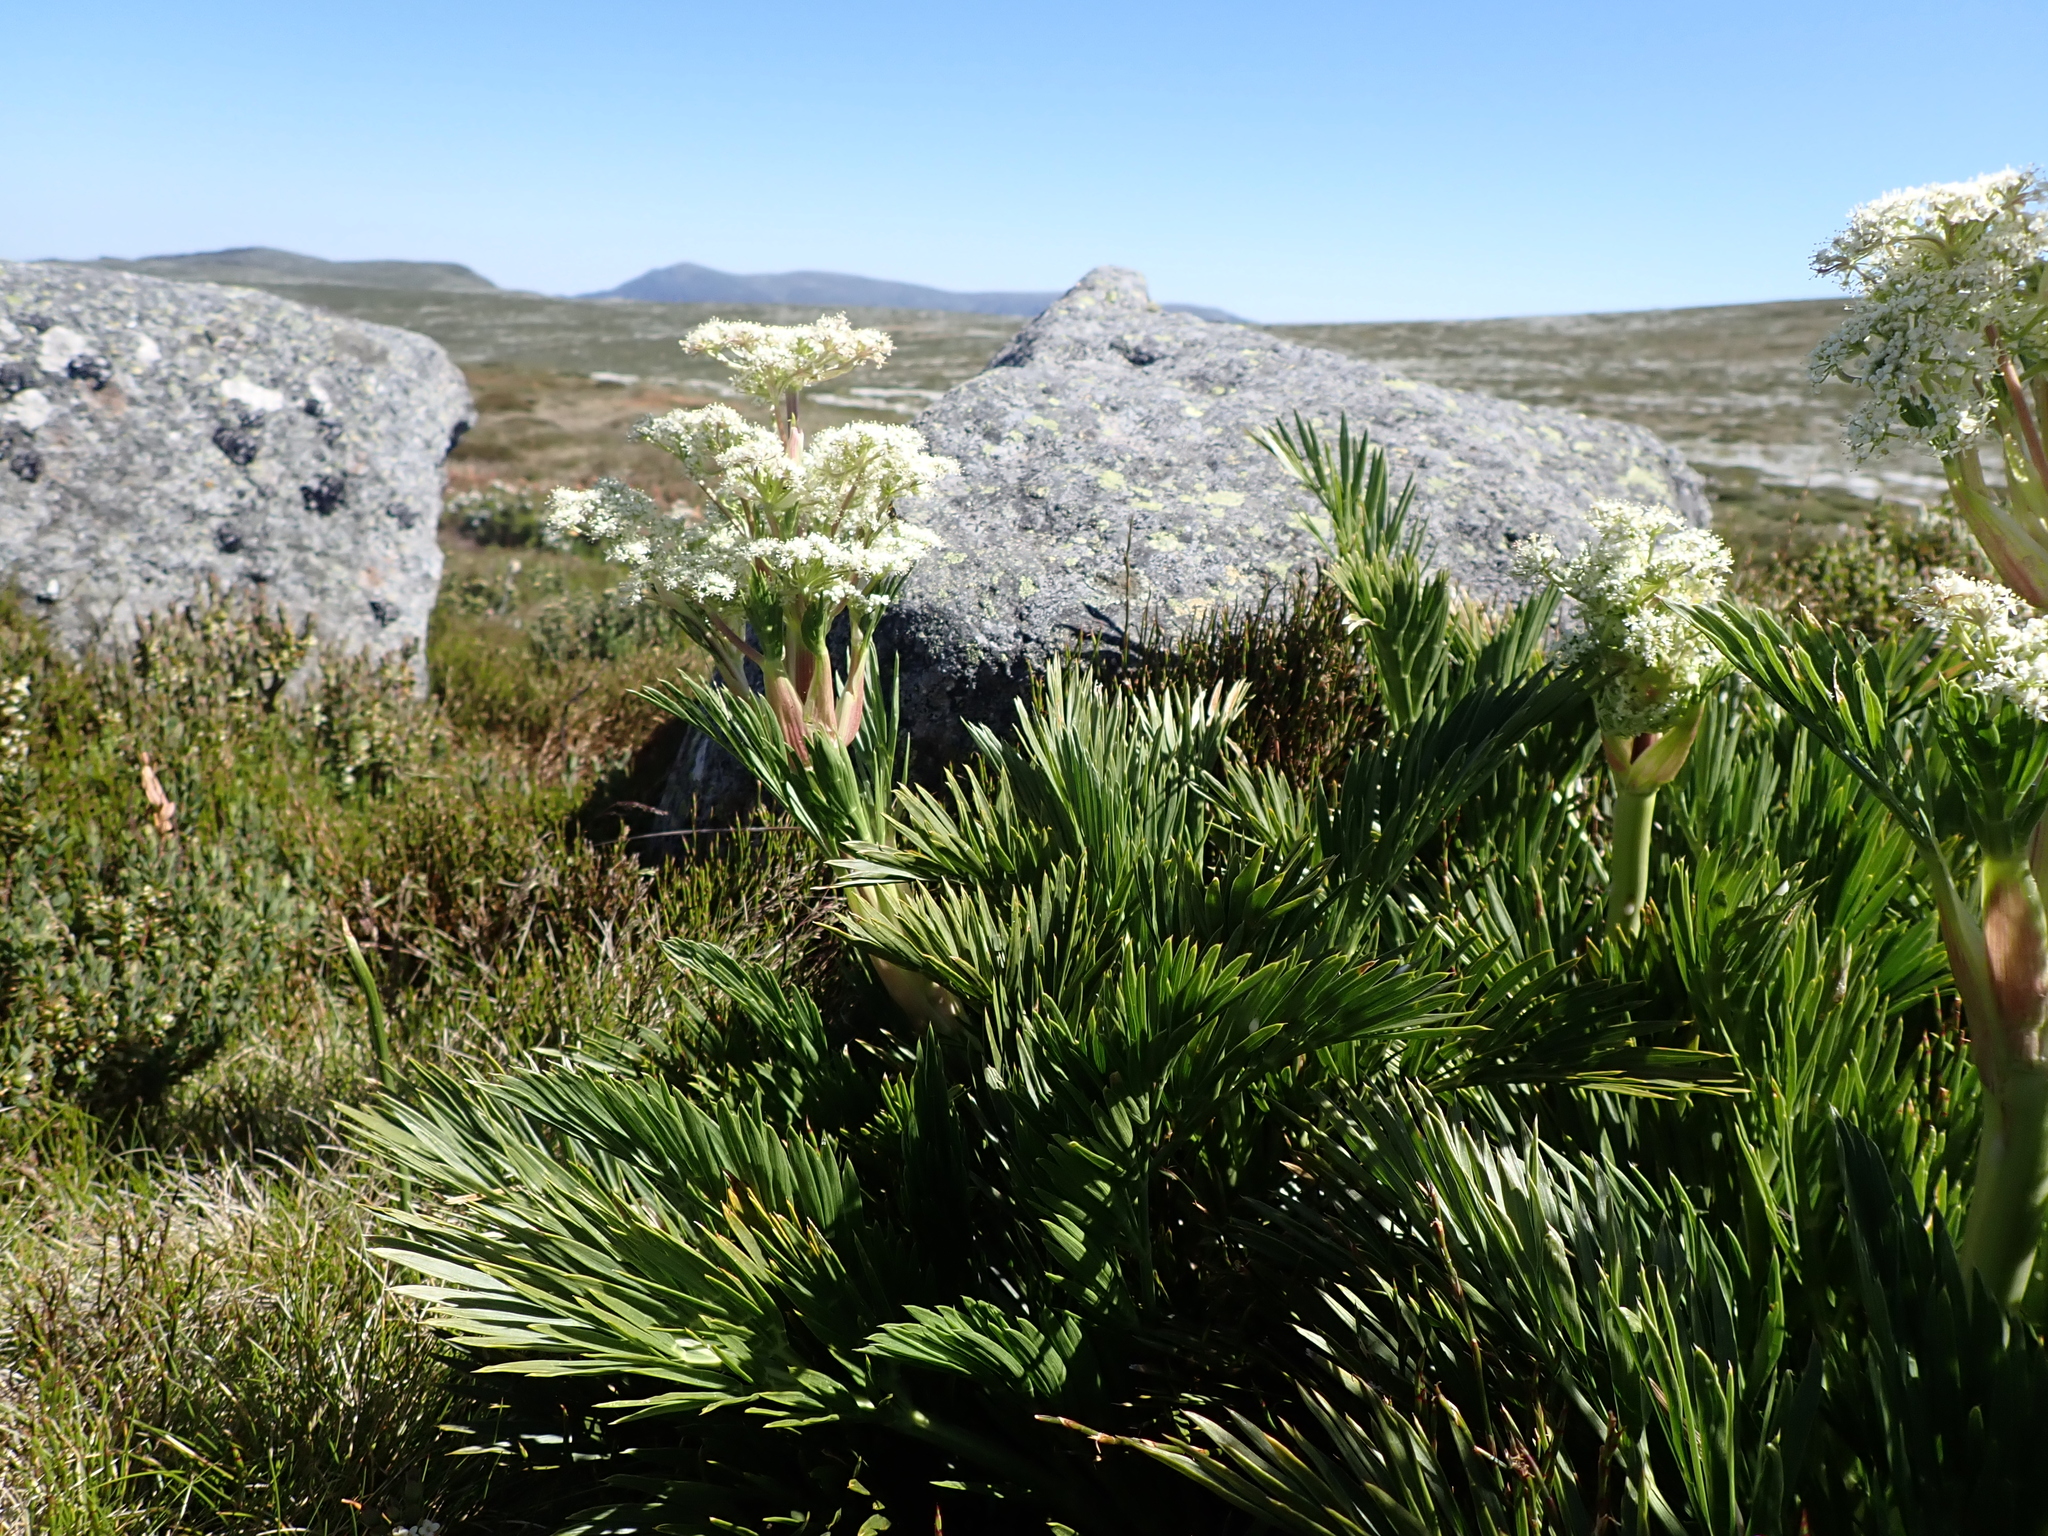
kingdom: Plantae
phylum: Tracheophyta
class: Magnoliopsida
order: Apiales
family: Apiaceae
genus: Aciphylla
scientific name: Aciphylla glacialis
